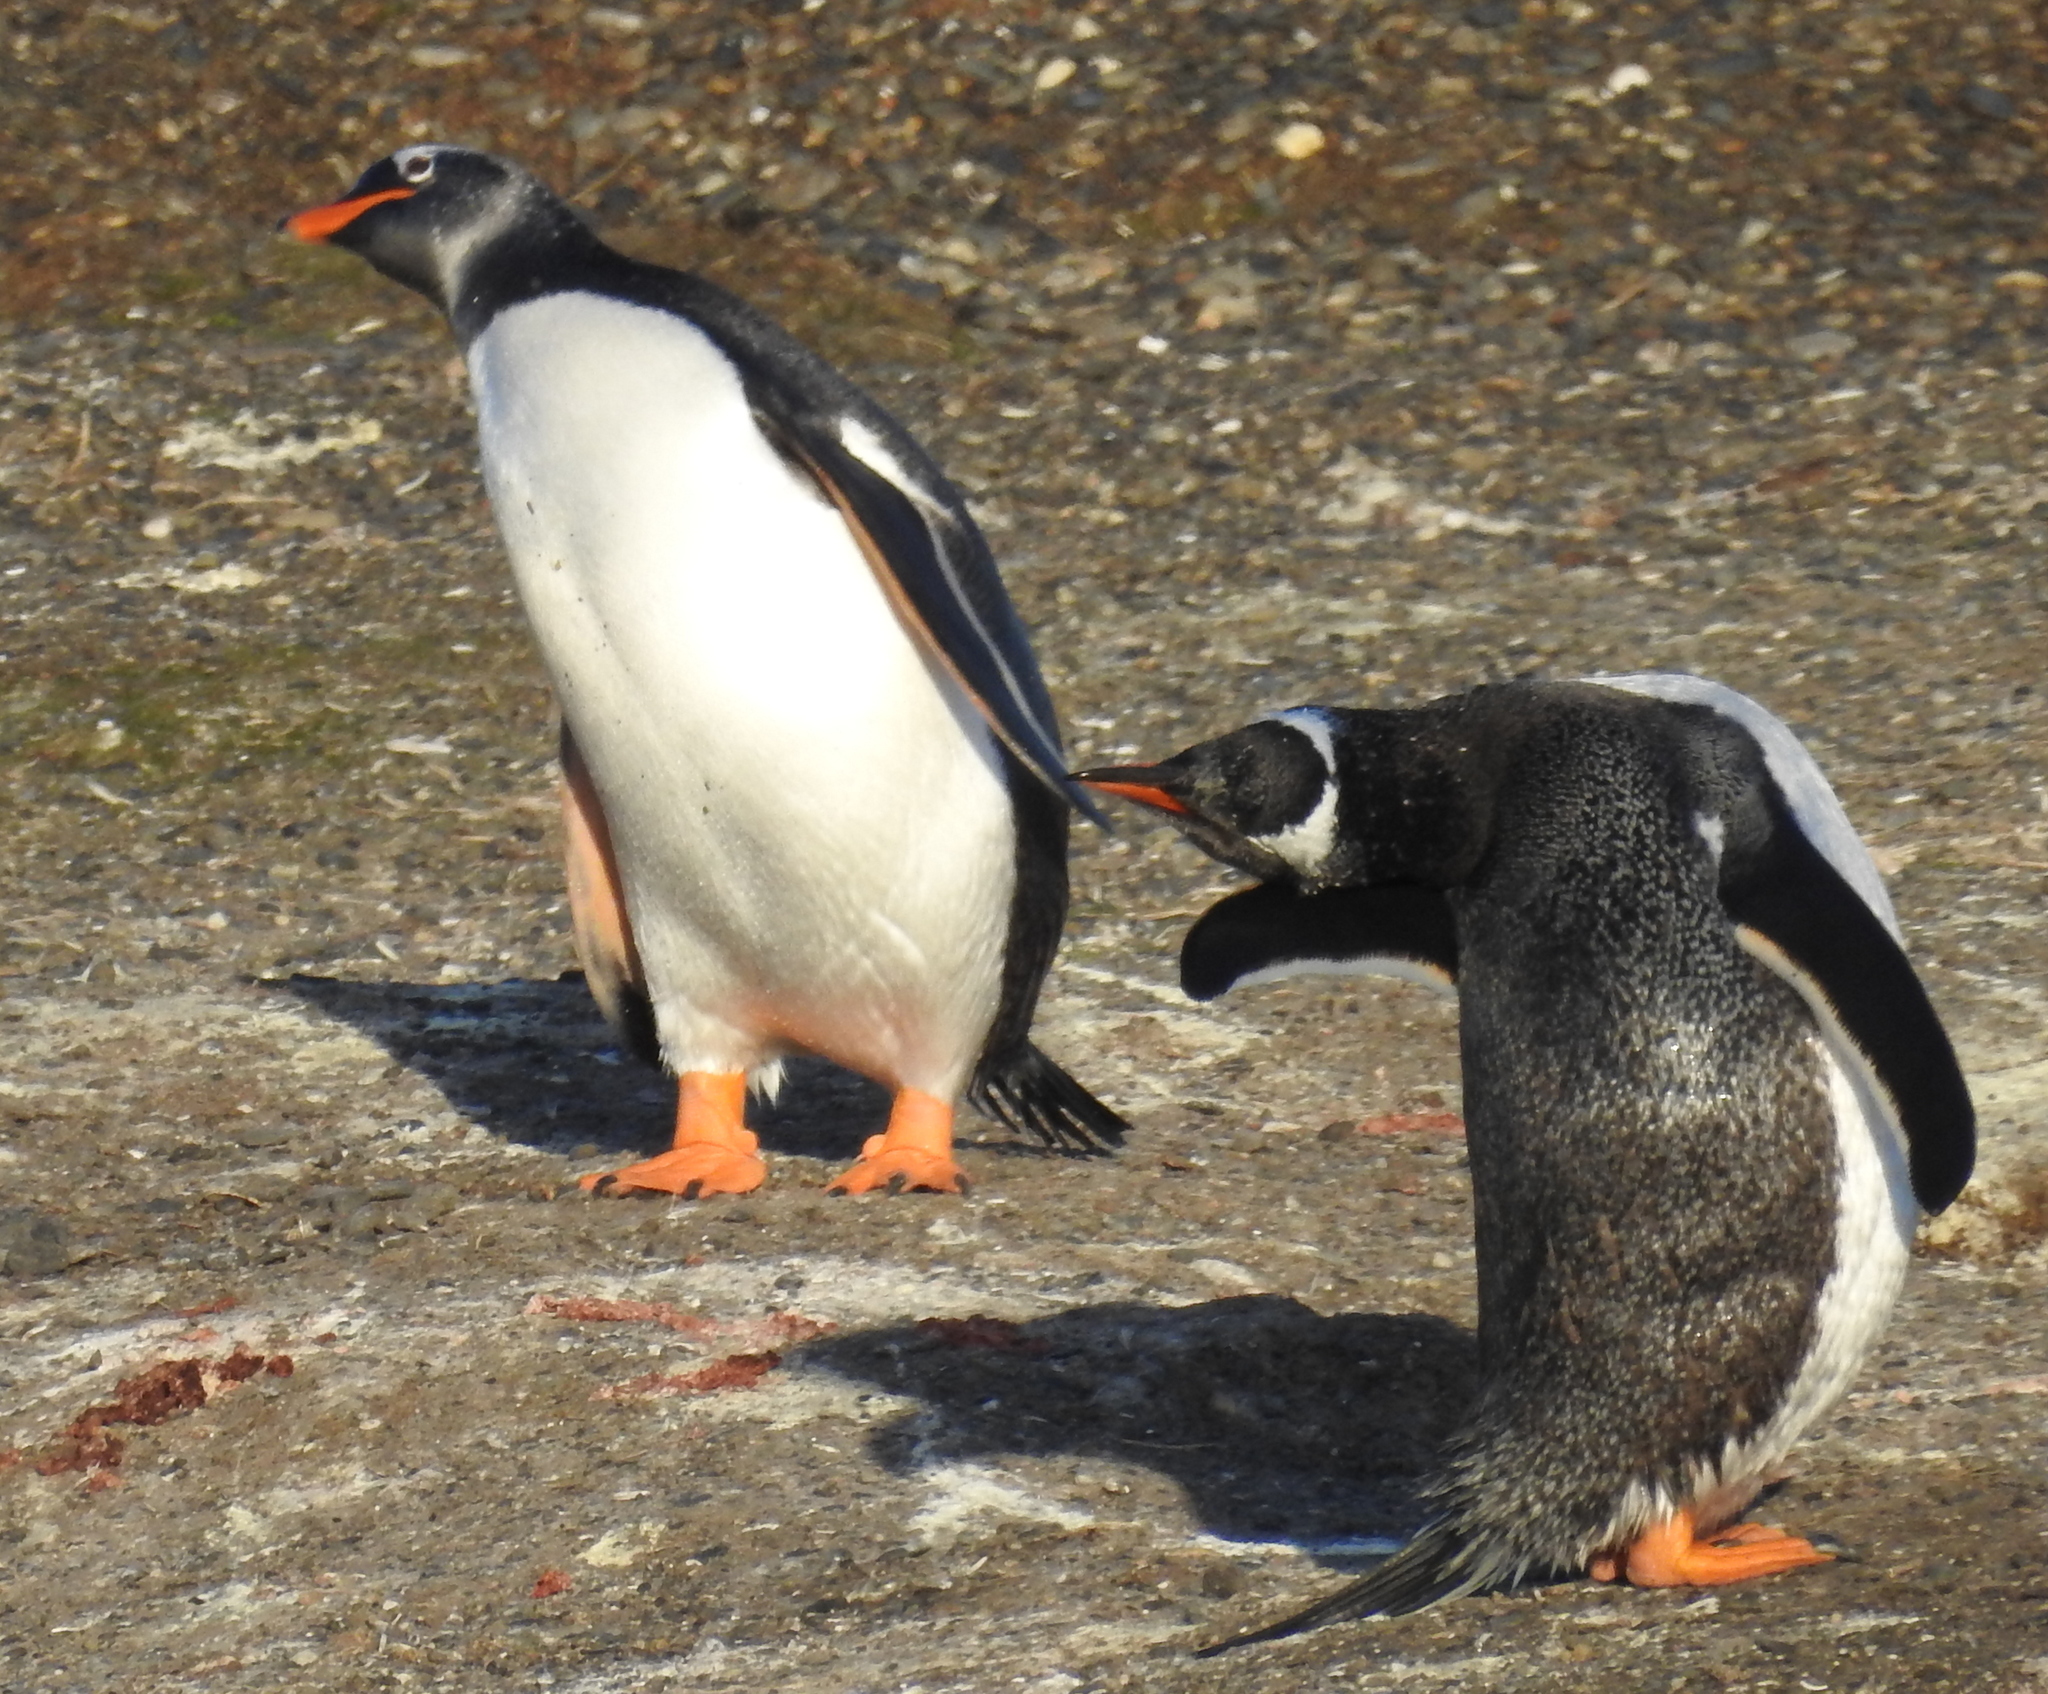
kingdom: Animalia
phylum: Chordata
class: Aves
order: Sphenisciformes
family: Spheniscidae
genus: Pygoscelis
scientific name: Pygoscelis papua
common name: Gentoo penguin
